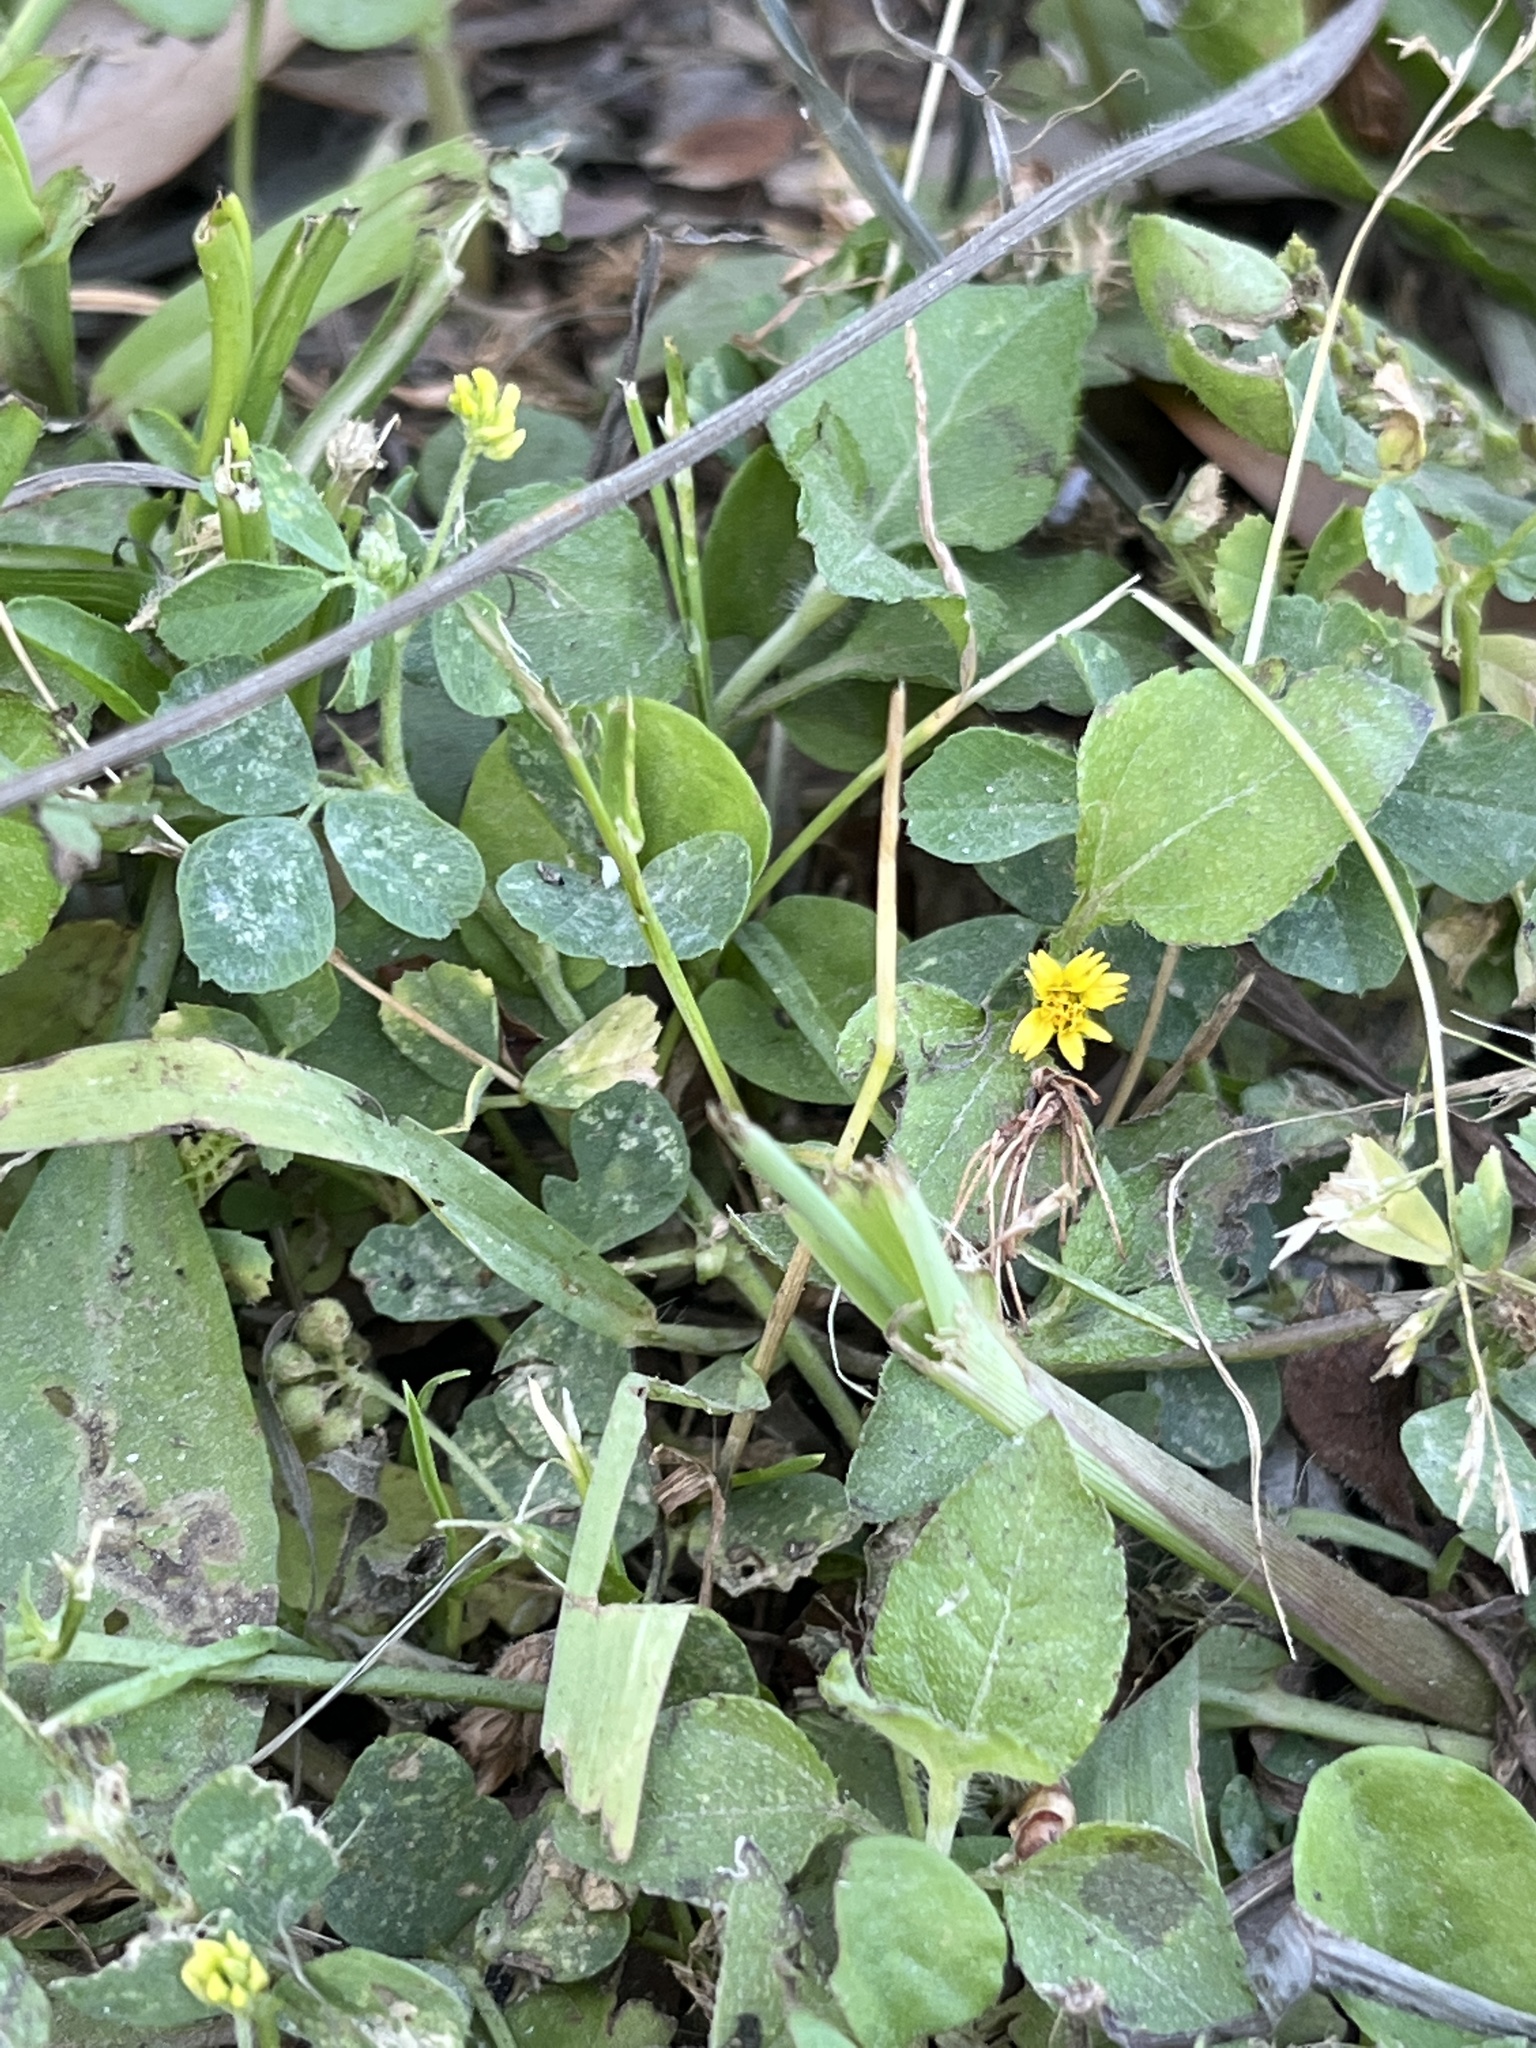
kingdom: Plantae
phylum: Tracheophyta
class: Magnoliopsida
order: Asterales
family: Asteraceae
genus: Calyptocarpus
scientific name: Calyptocarpus vialis
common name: Straggler daisy
